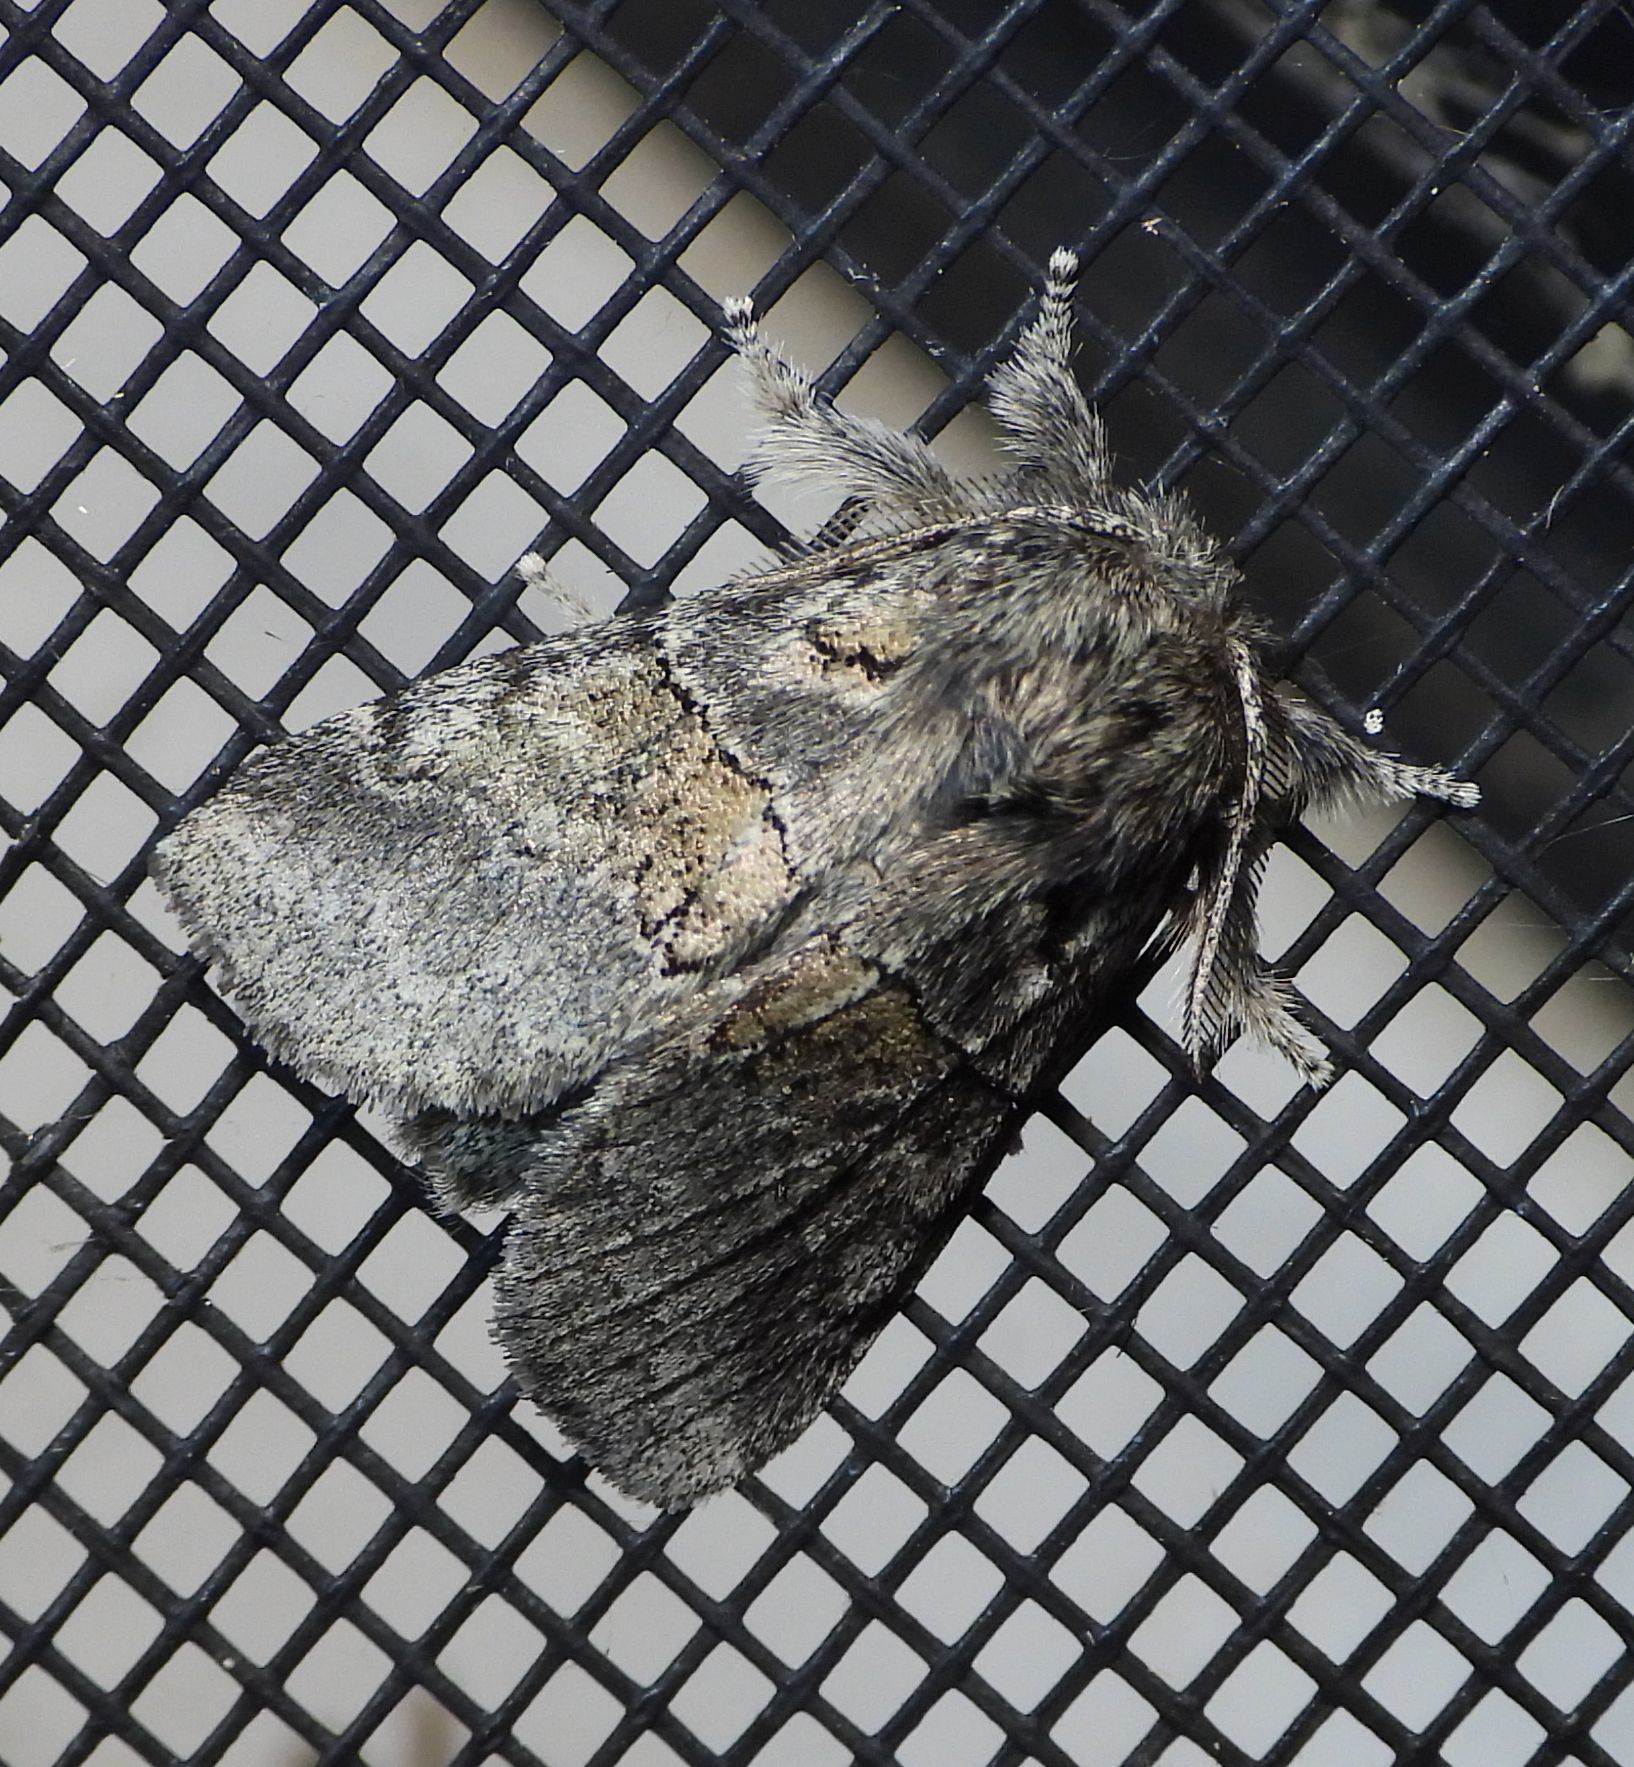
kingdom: Animalia
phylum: Arthropoda
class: Insecta
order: Lepidoptera
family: Notodontidae
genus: Gluphisia
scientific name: Gluphisia septentrionis
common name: Common gluphisia
